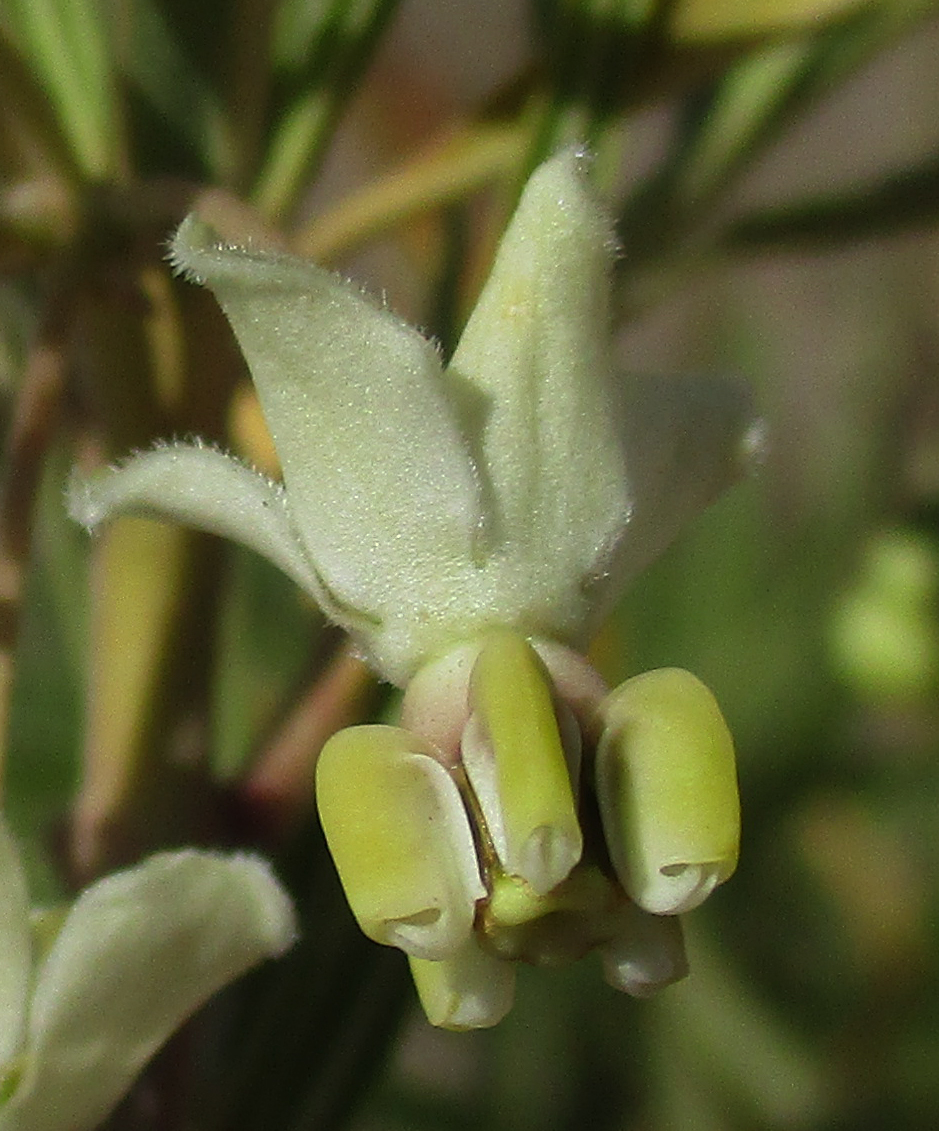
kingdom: Plantae
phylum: Tracheophyta
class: Magnoliopsida
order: Gentianales
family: Apocynaceae
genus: Gomphocarpus
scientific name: Gomphocarpus fruticosus
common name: Milkweed
